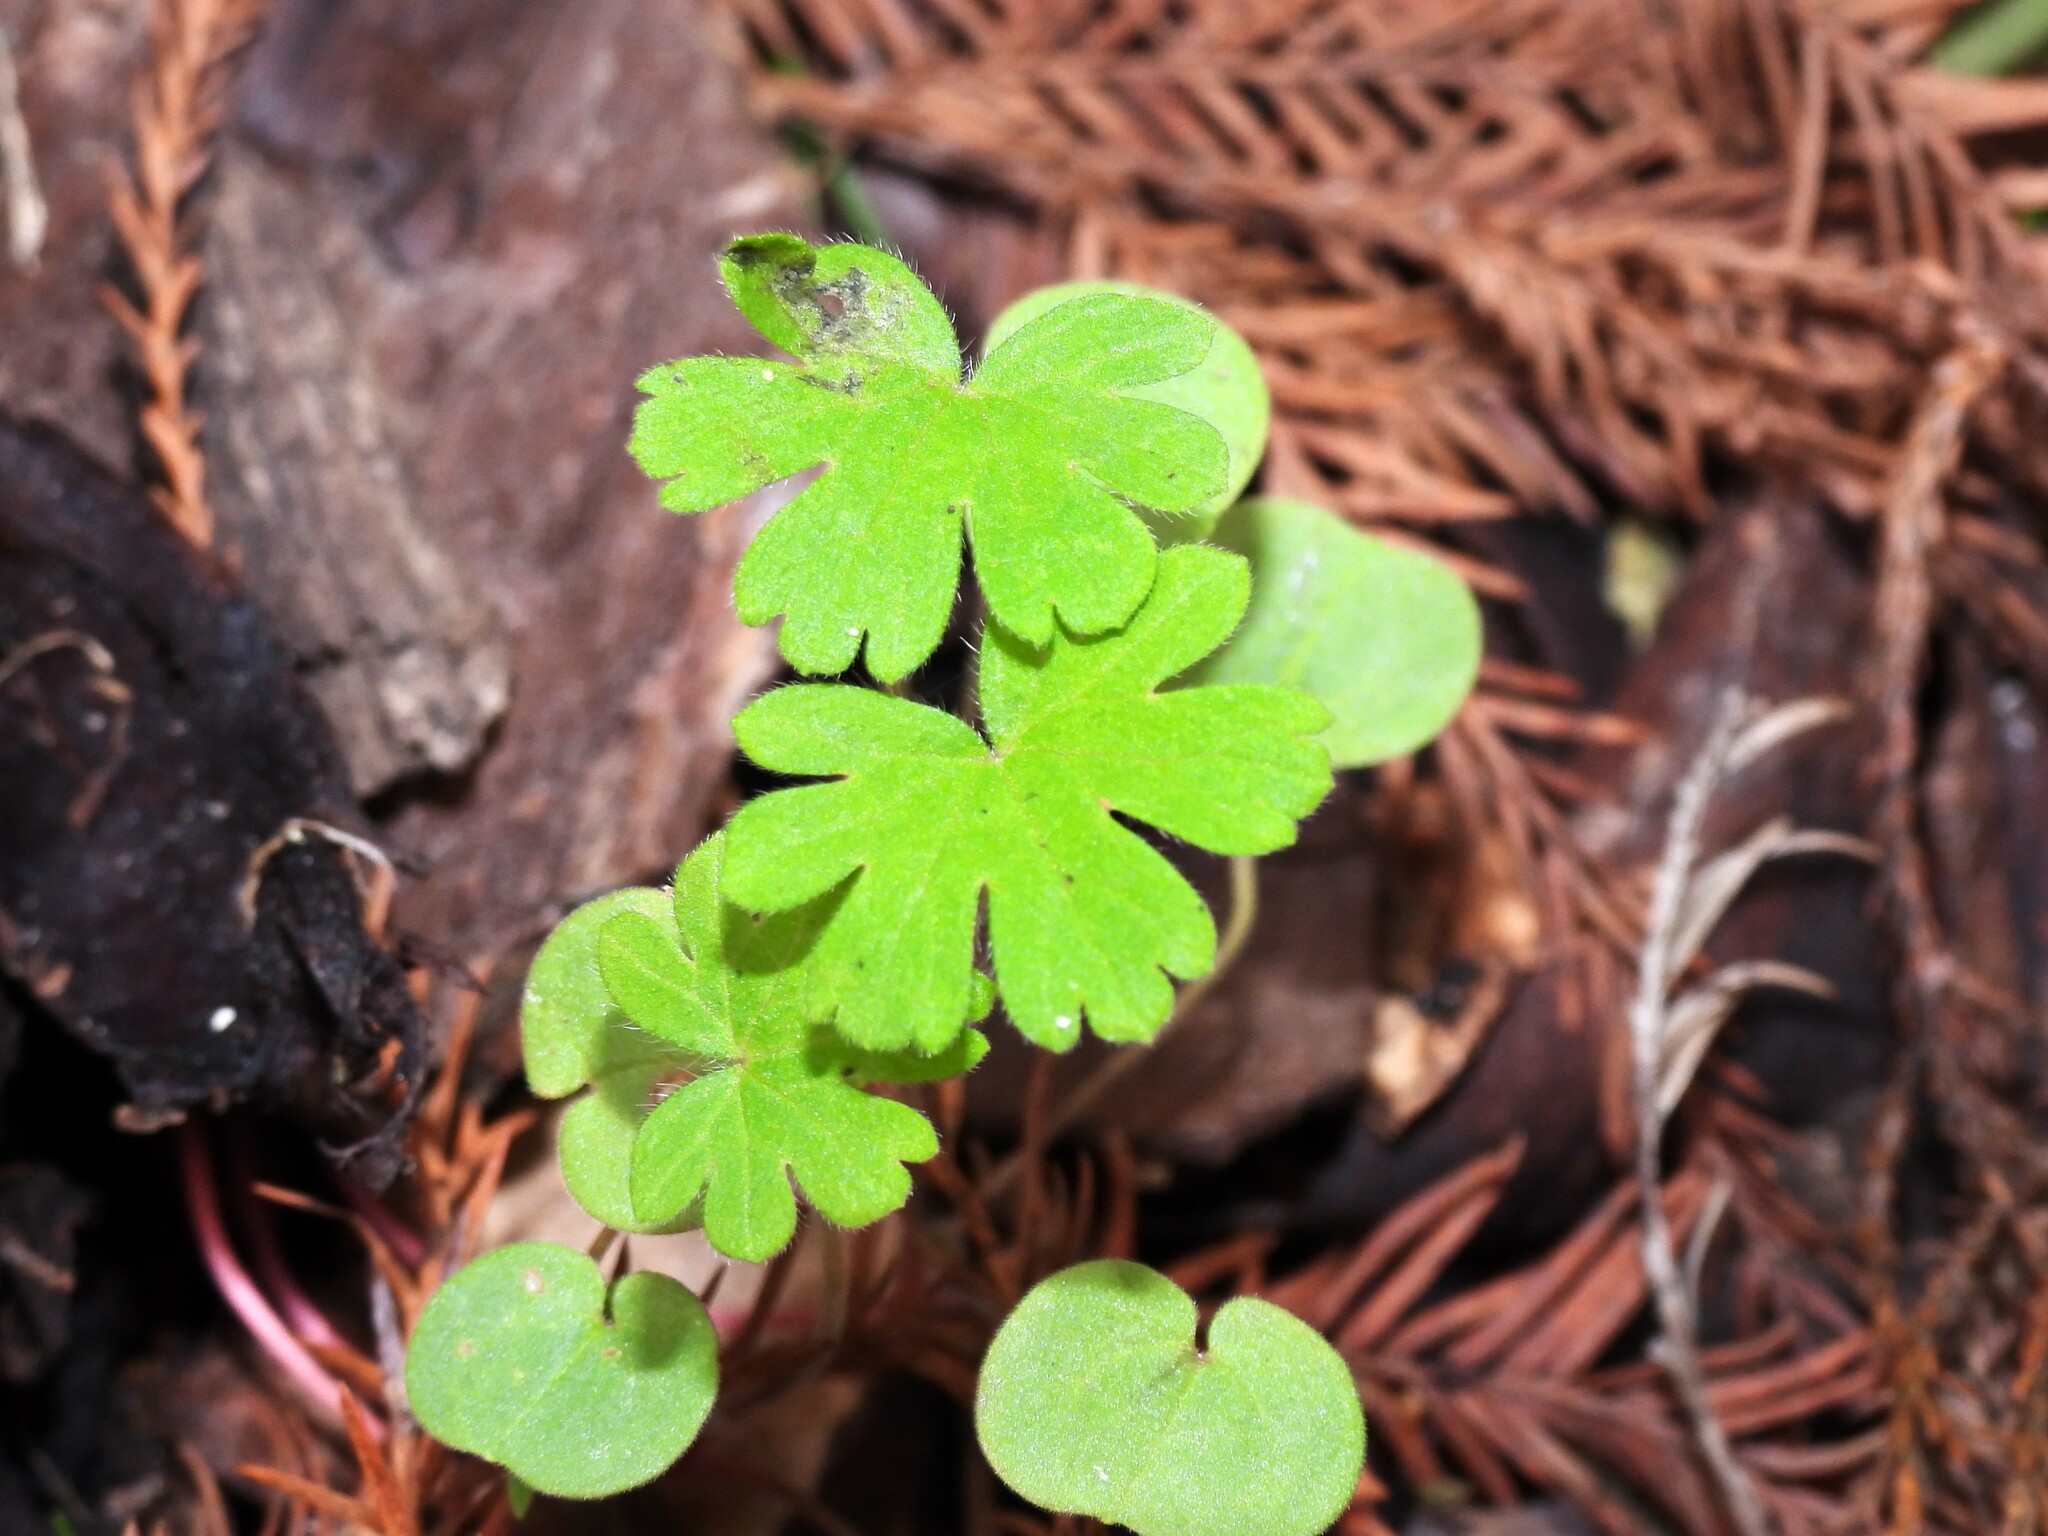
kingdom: Plantae
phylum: Tracheophyta
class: Magnoliopsida
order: Geraniales
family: Geraniaceae
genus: Geranium
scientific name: Geranium carolinianum
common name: Carolina crane's-bill
